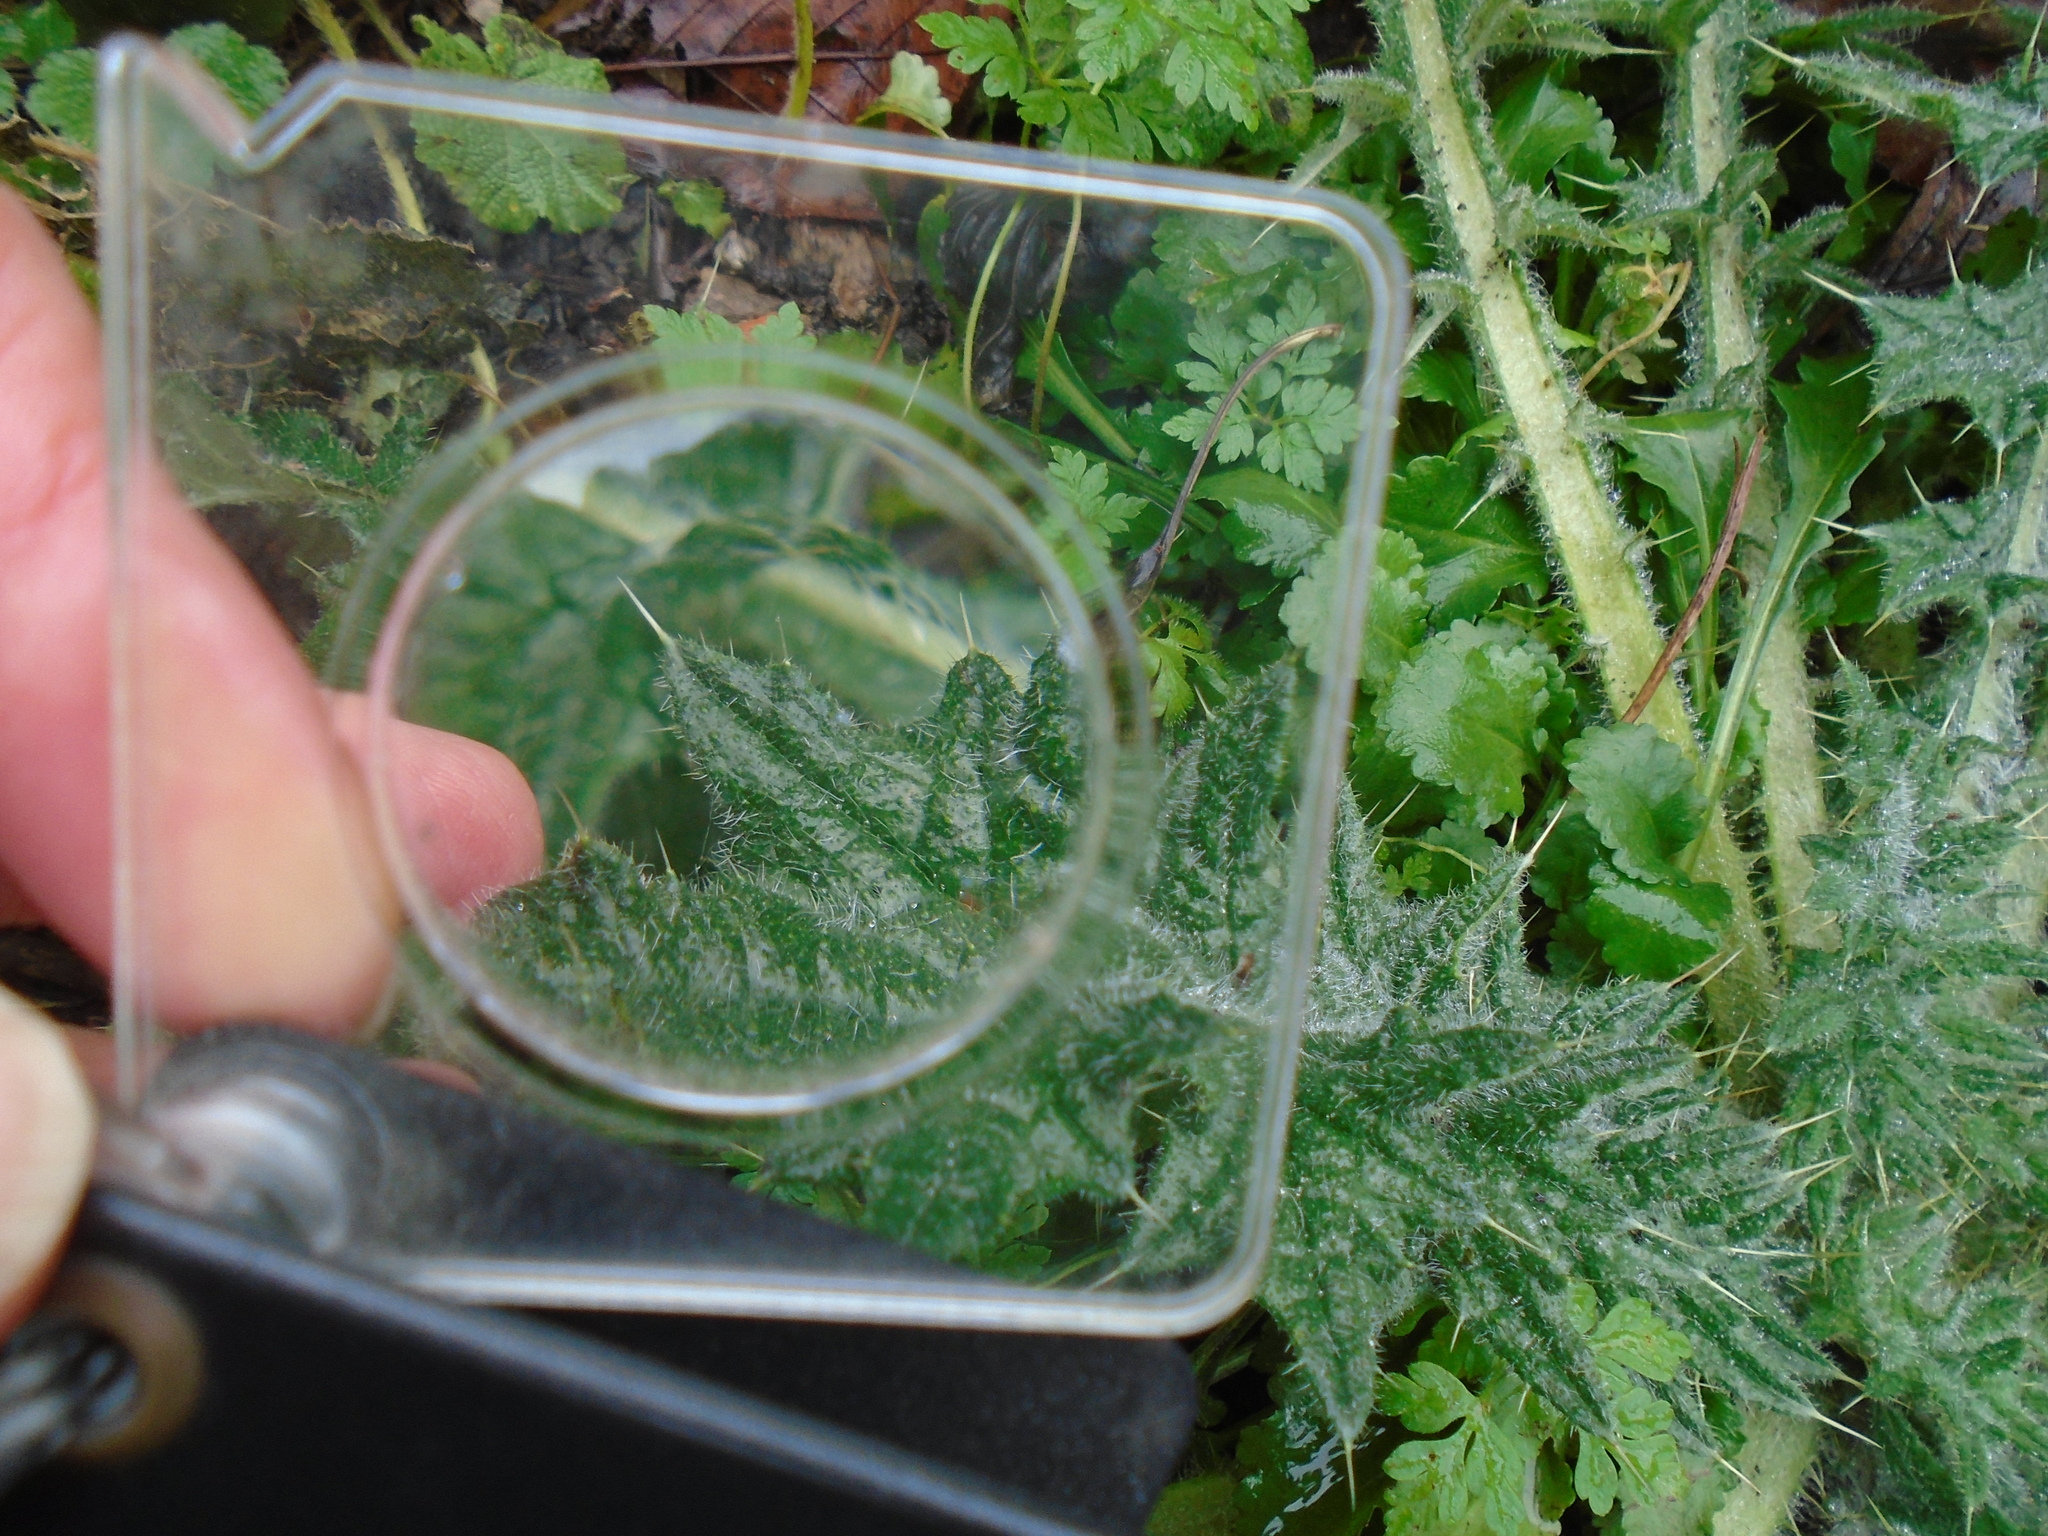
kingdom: Plantae
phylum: Tracheophyta
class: Magnoliopsida
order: Asterales
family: Asteraceae
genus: Cirsium
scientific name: Cirsium vulgare
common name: Bull thistle
